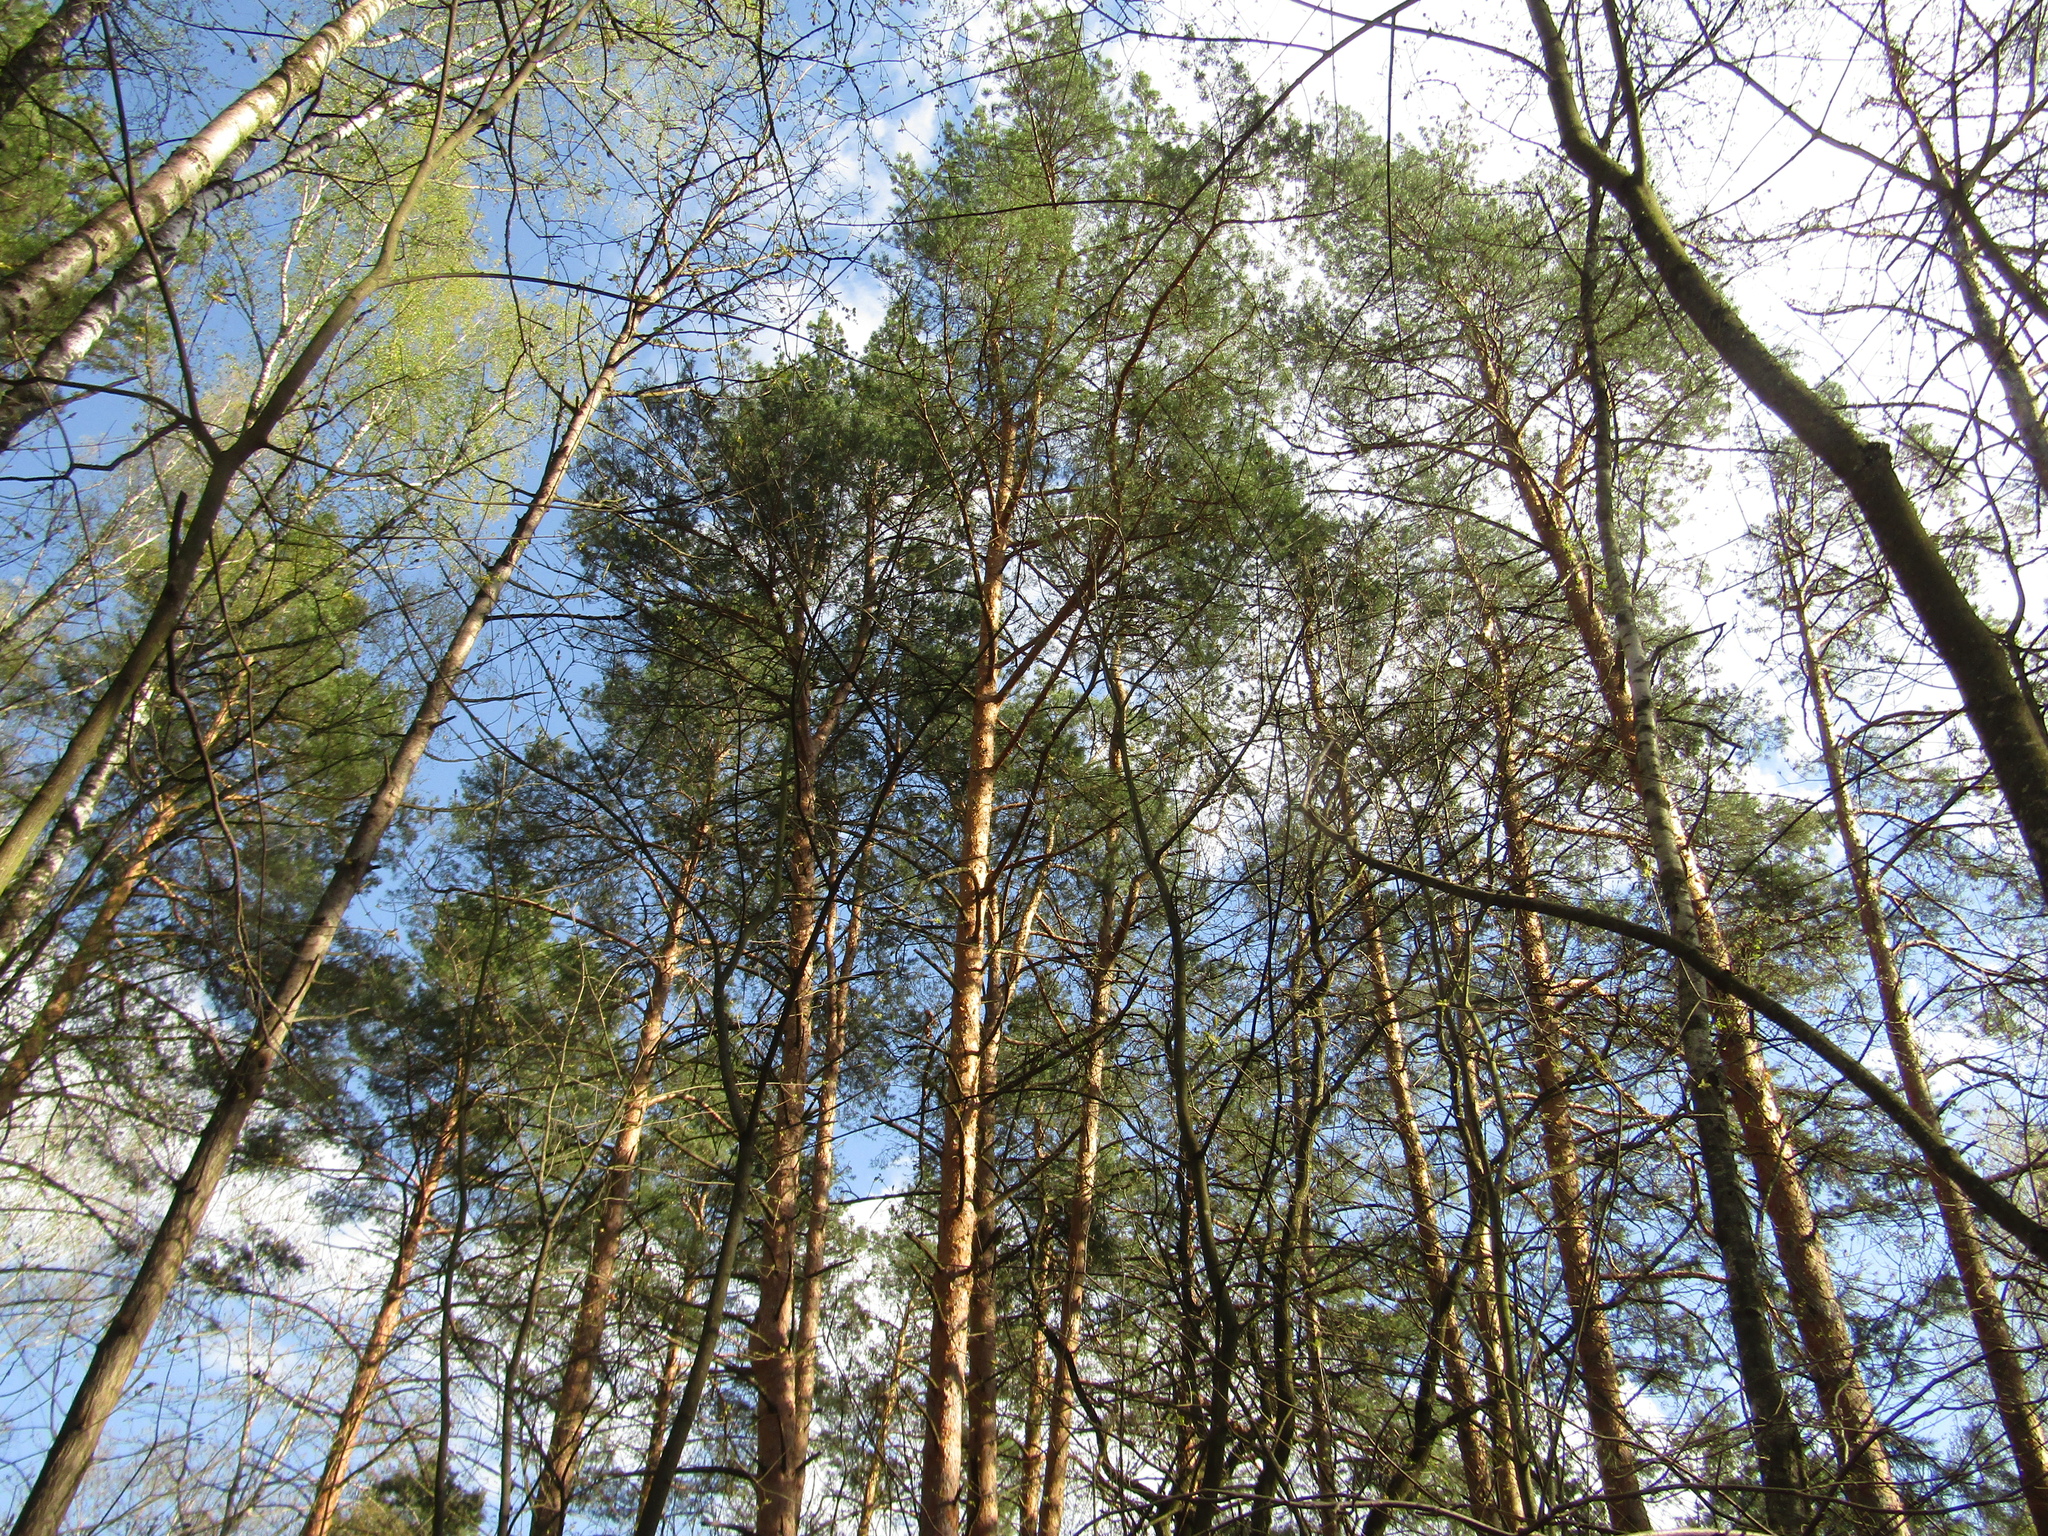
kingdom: Plantae
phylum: Tracheophyta
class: Pinopsida
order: Pinales
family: Pinaceae
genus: Pinus
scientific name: Pinus sylvestris
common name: Scots pine
